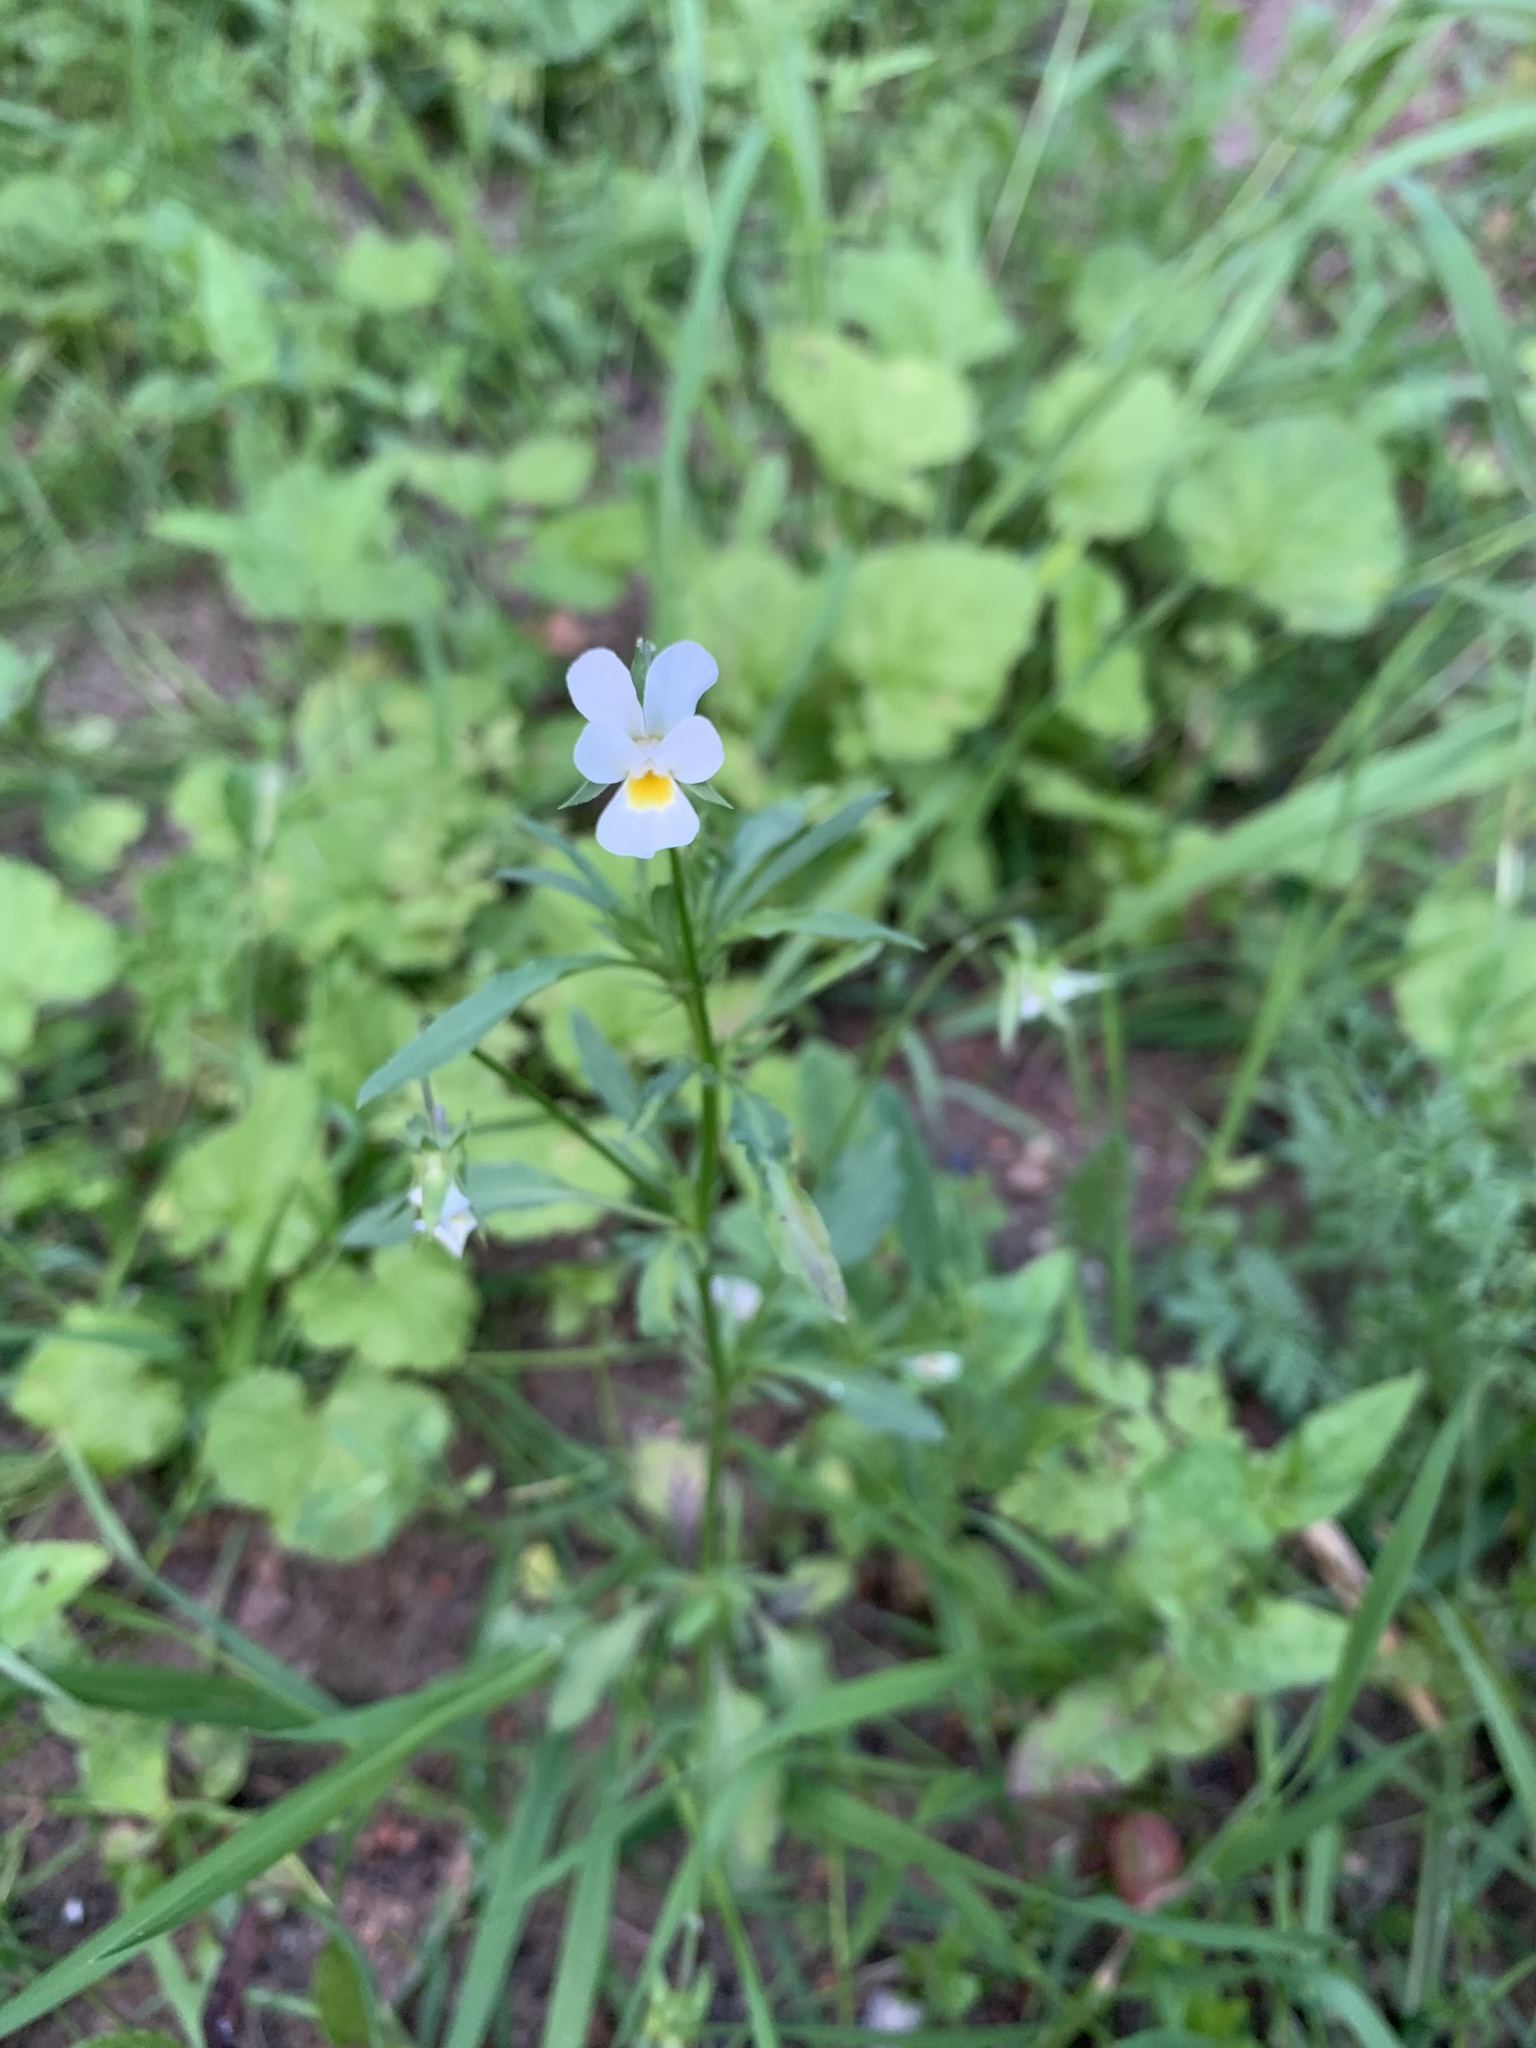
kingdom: Plantae
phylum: Tracheophyta
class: Magnoliopsida
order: Malpighiales
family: Violaceae
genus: Viola
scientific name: Viola arvensis
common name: Field pansy
